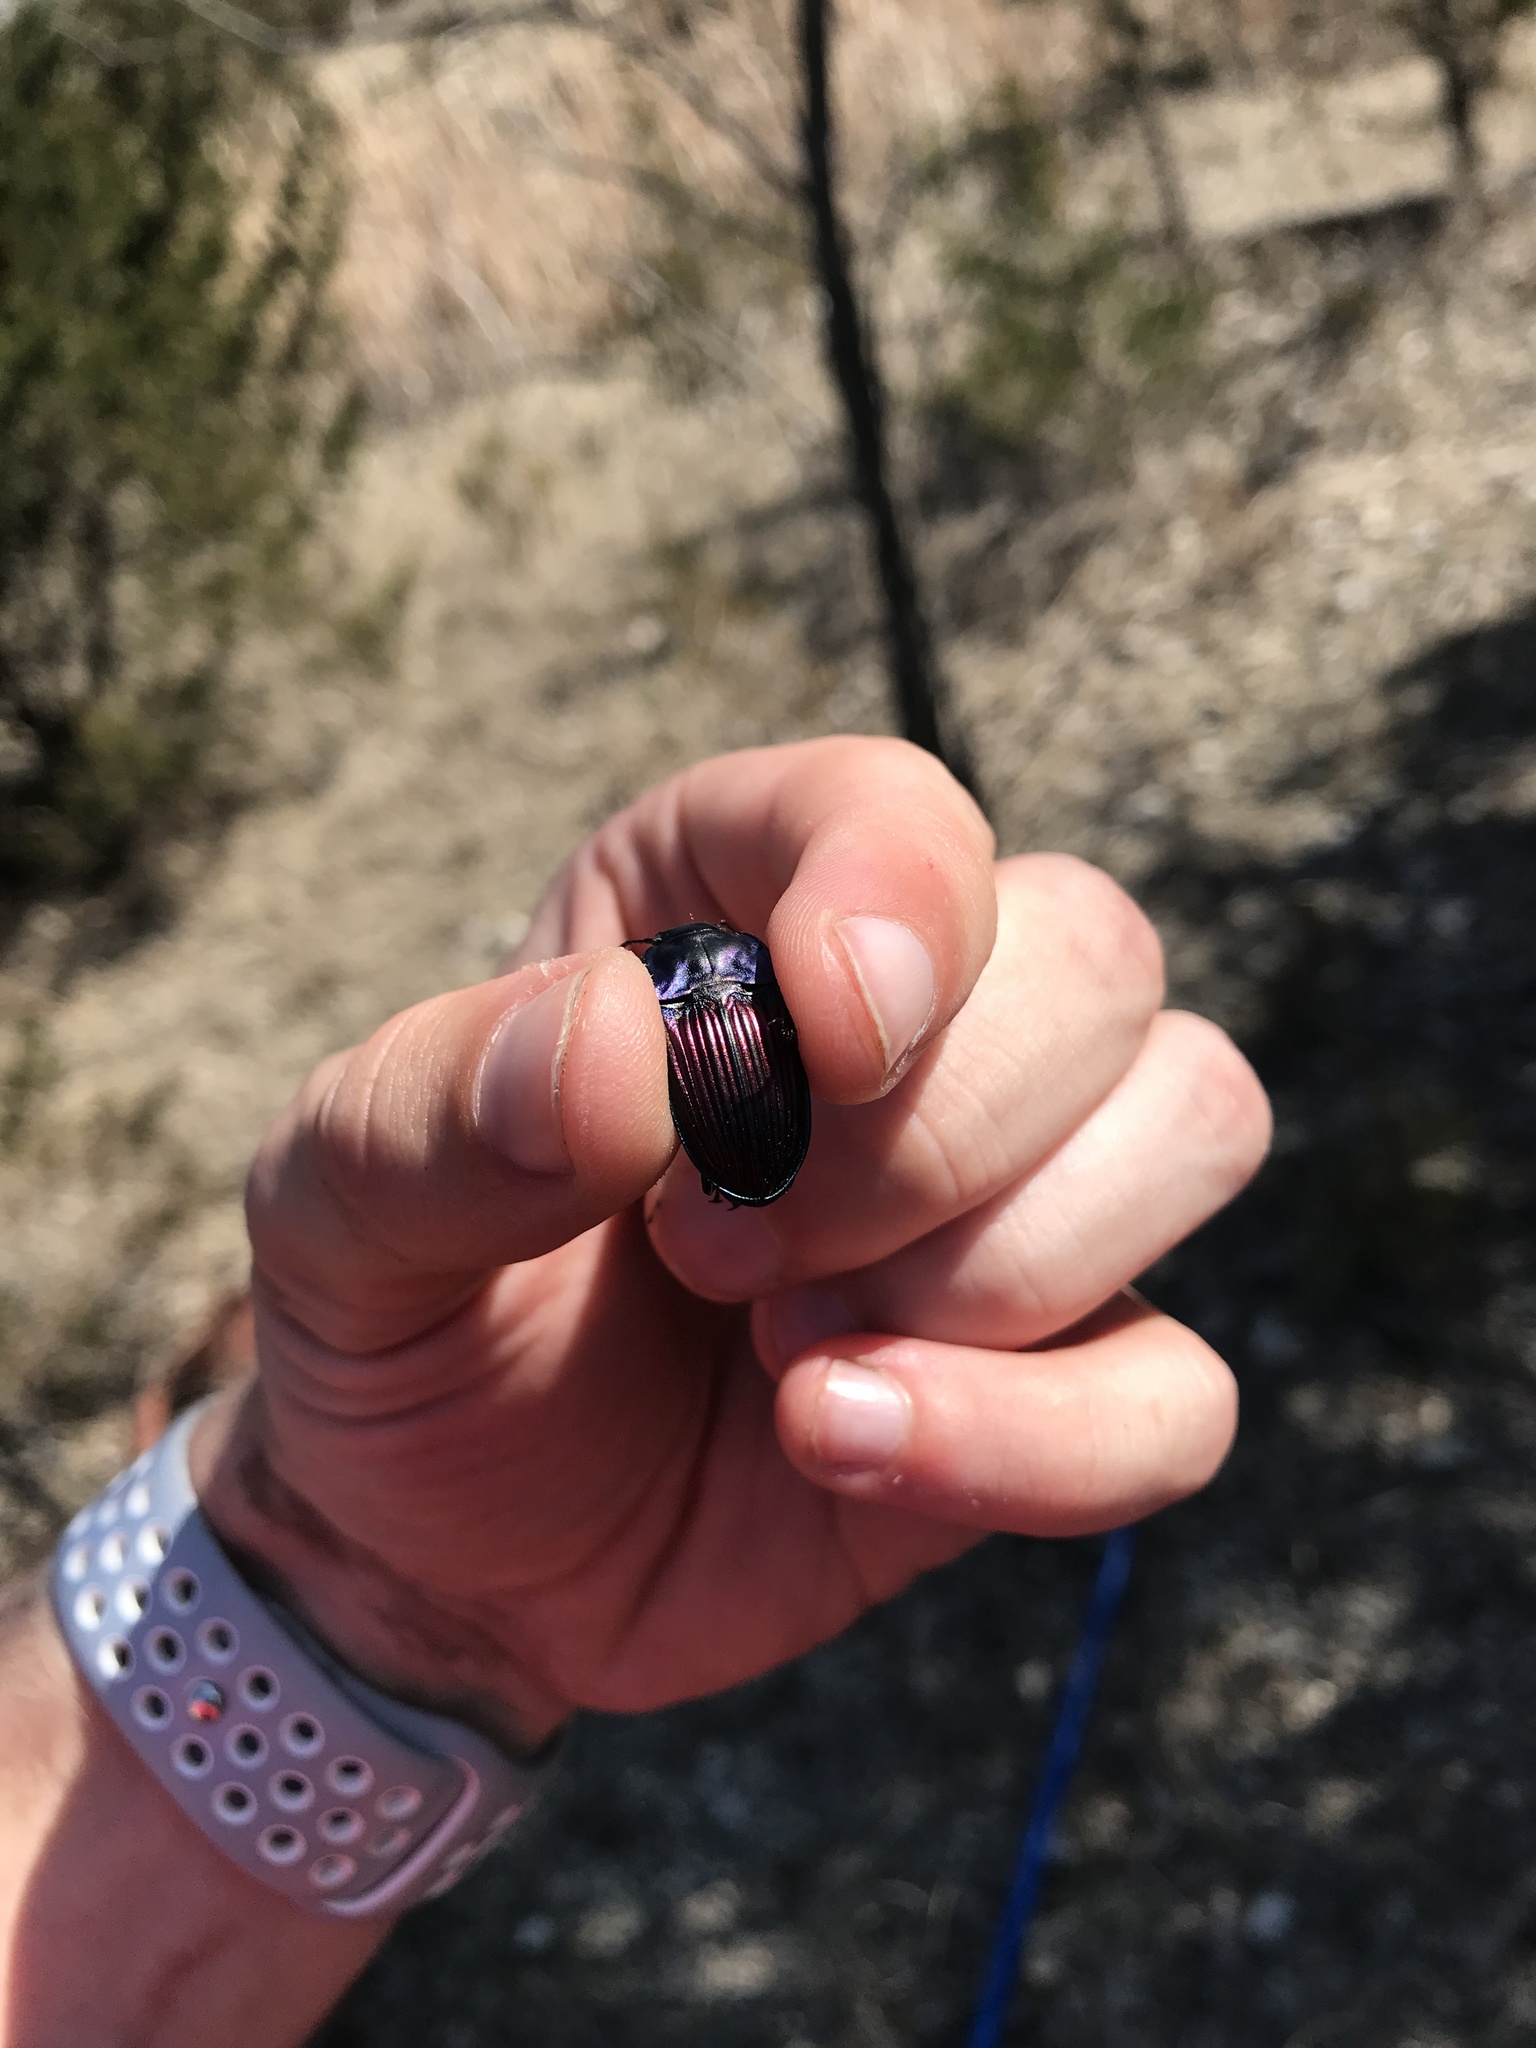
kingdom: Animalia
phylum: Arthropoda
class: Insecta
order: Coleoptera
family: Carabidae
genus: Dicaelus
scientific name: Dicaelus purpuratus
